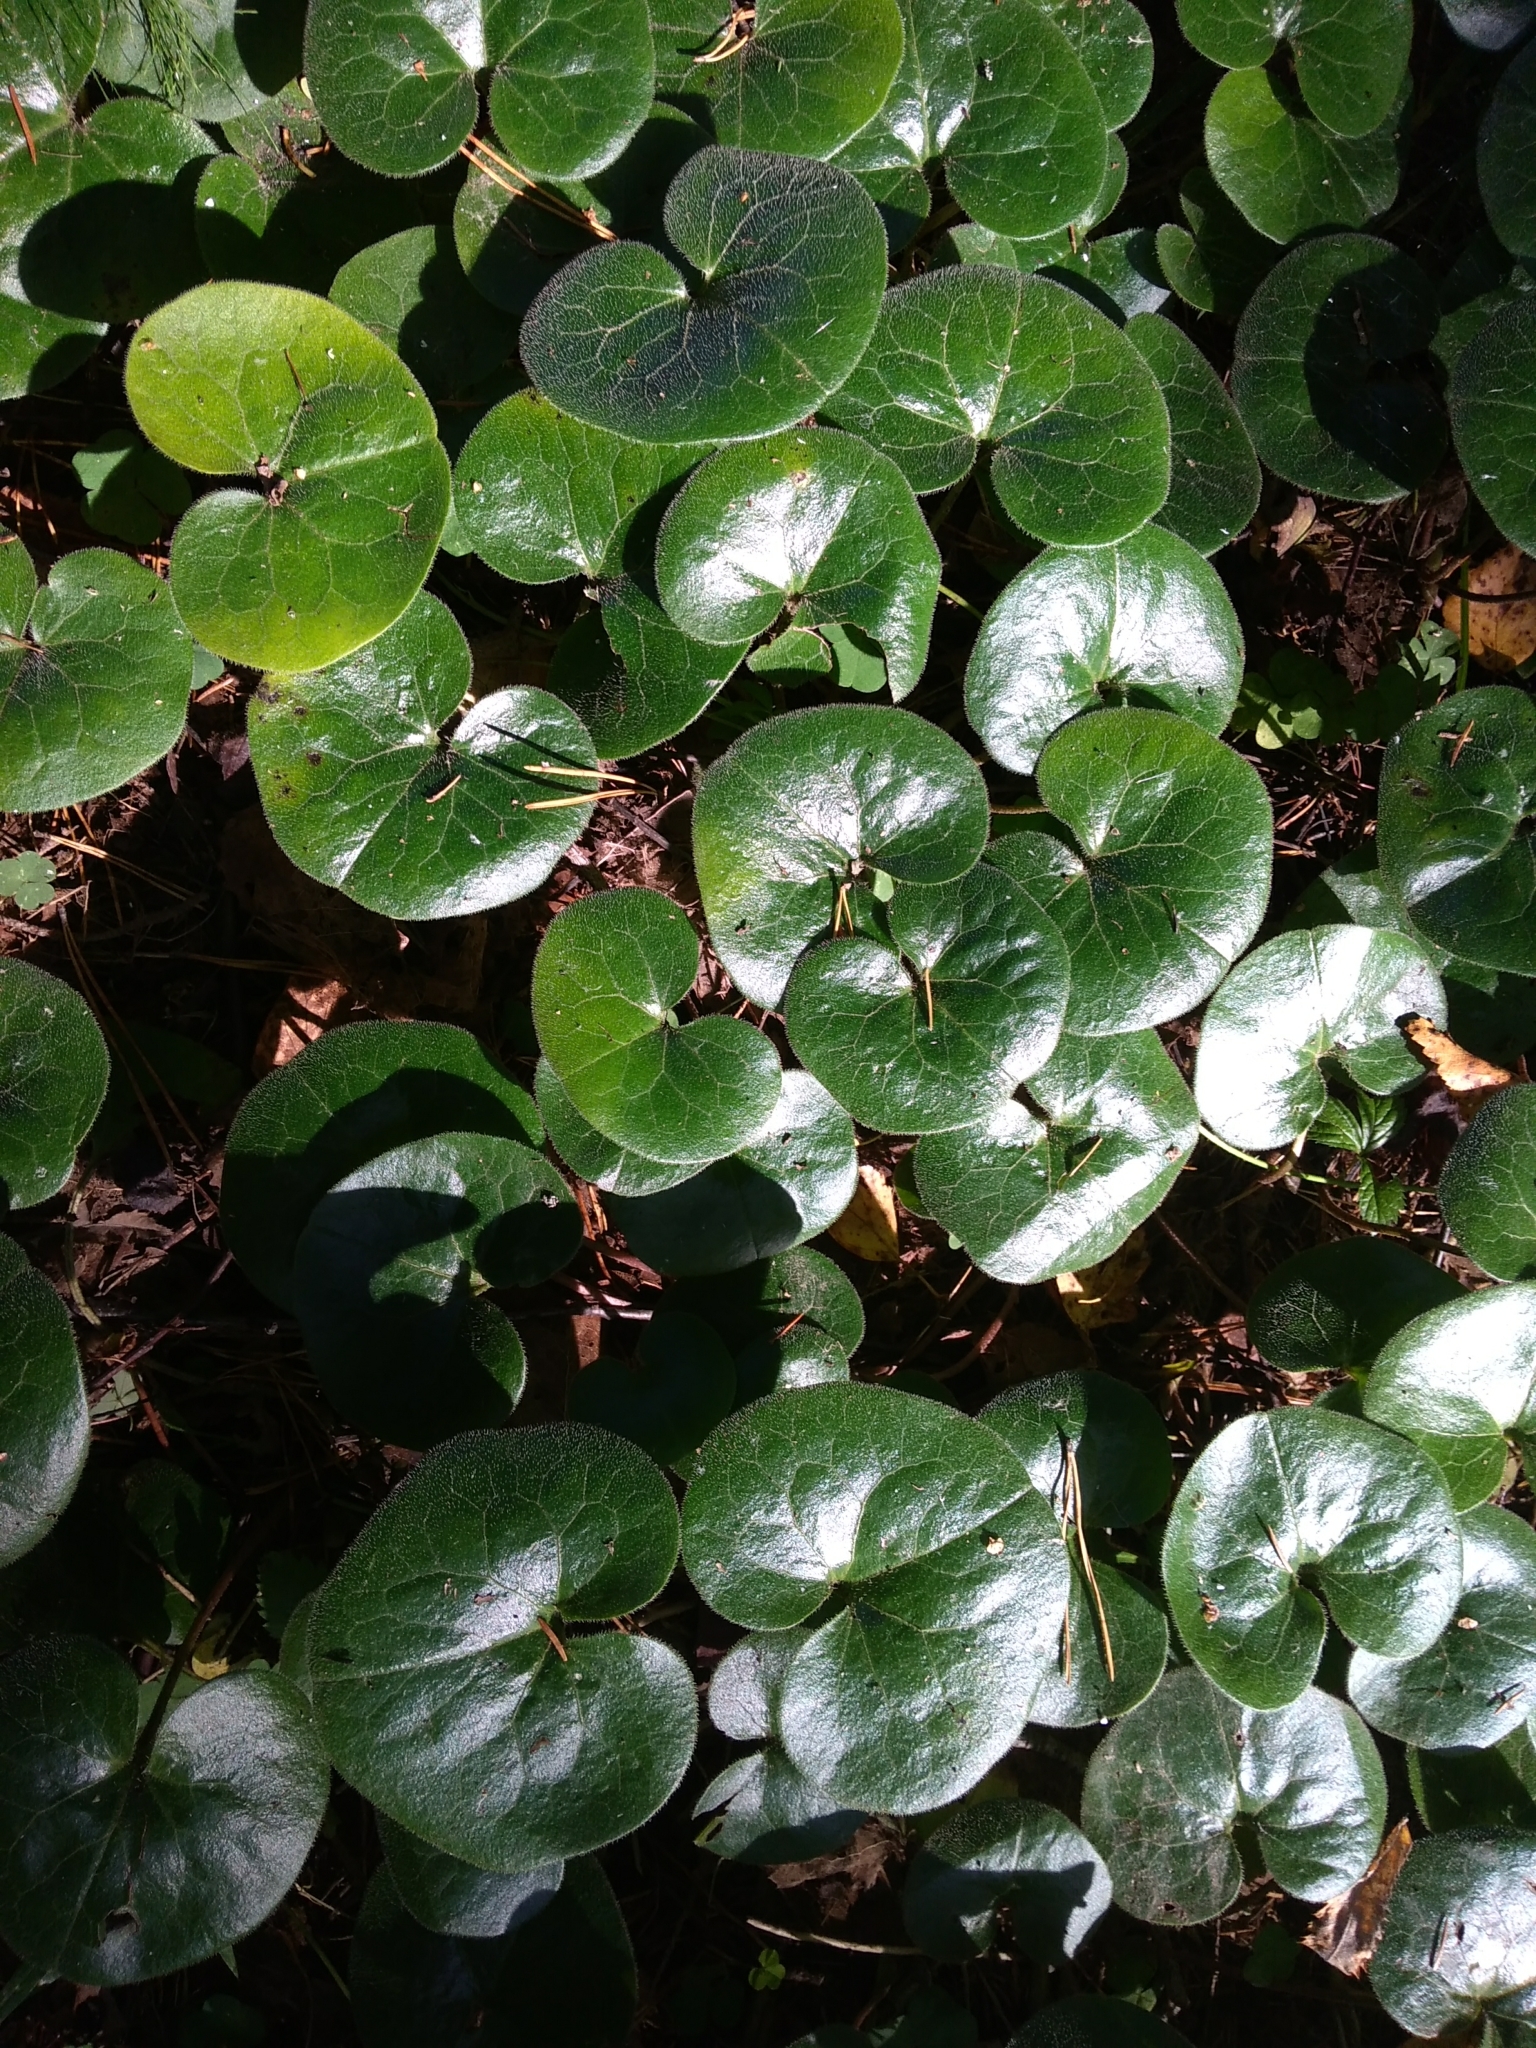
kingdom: Plantae
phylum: Tracheophyta
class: Magnoliopsida
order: Piperales
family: Aristolochiaceae
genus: Asarum
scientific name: Asarum europaeum
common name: Asarabacca
